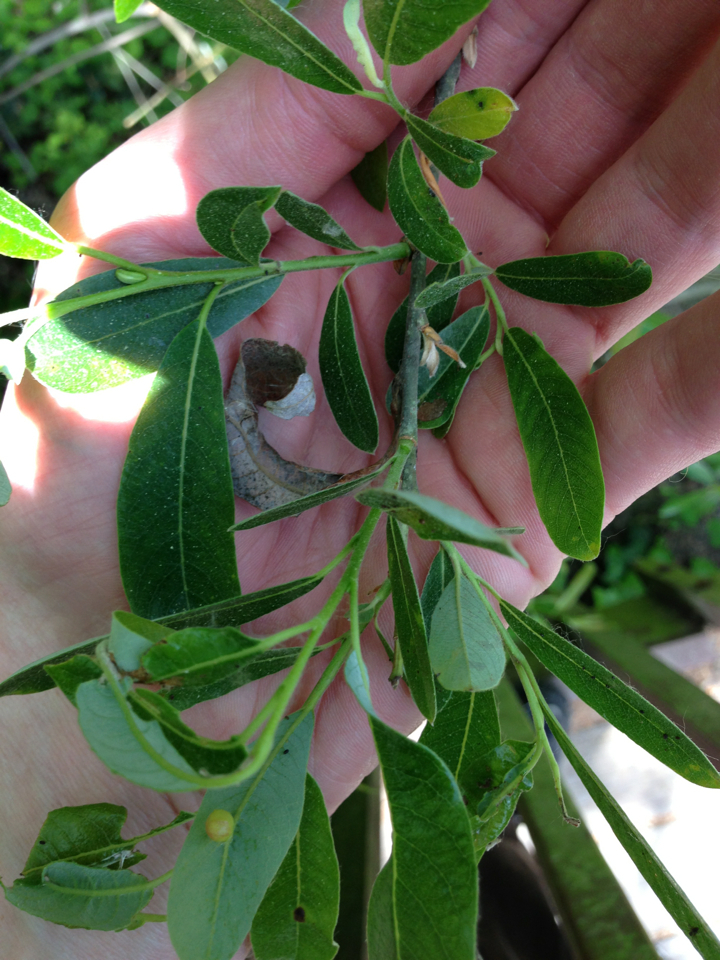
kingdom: Plantae
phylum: Tracheophyta
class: Magnoliopsida
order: Malpighiales
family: Salicaceae
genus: Salix
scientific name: Salix lasiolepis
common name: Arroyo willow
